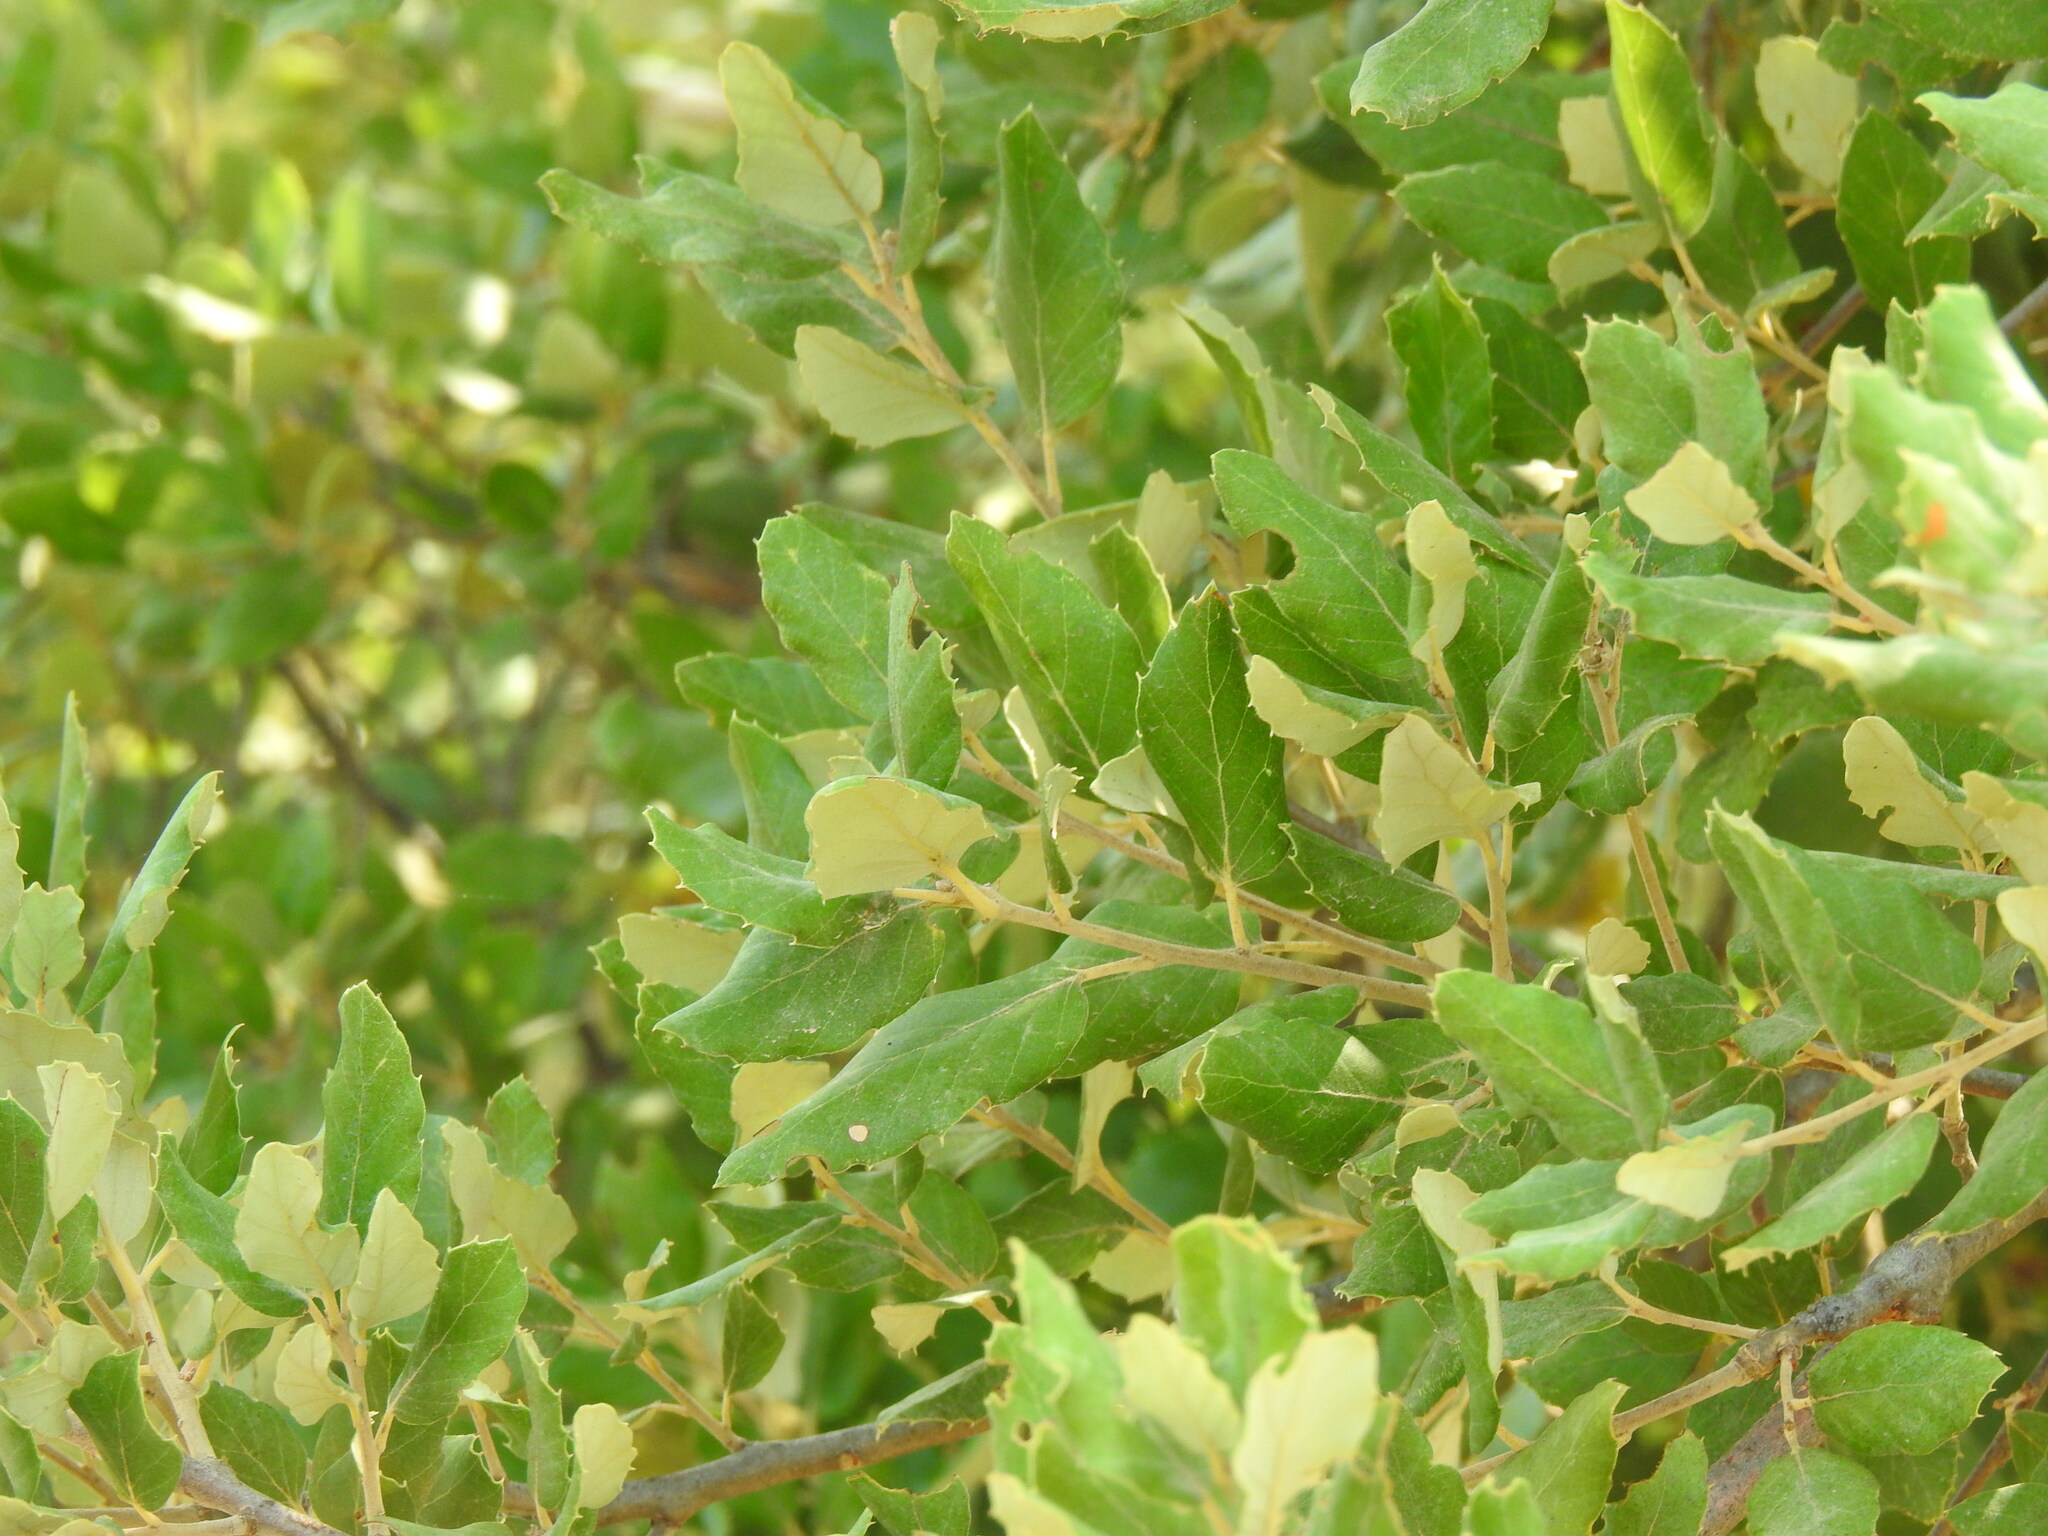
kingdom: Plantae
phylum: Tracheophyta
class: Magnoliopsida
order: Fagales
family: Fagaceae
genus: Quercus
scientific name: Quercus suber
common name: Cork oak
